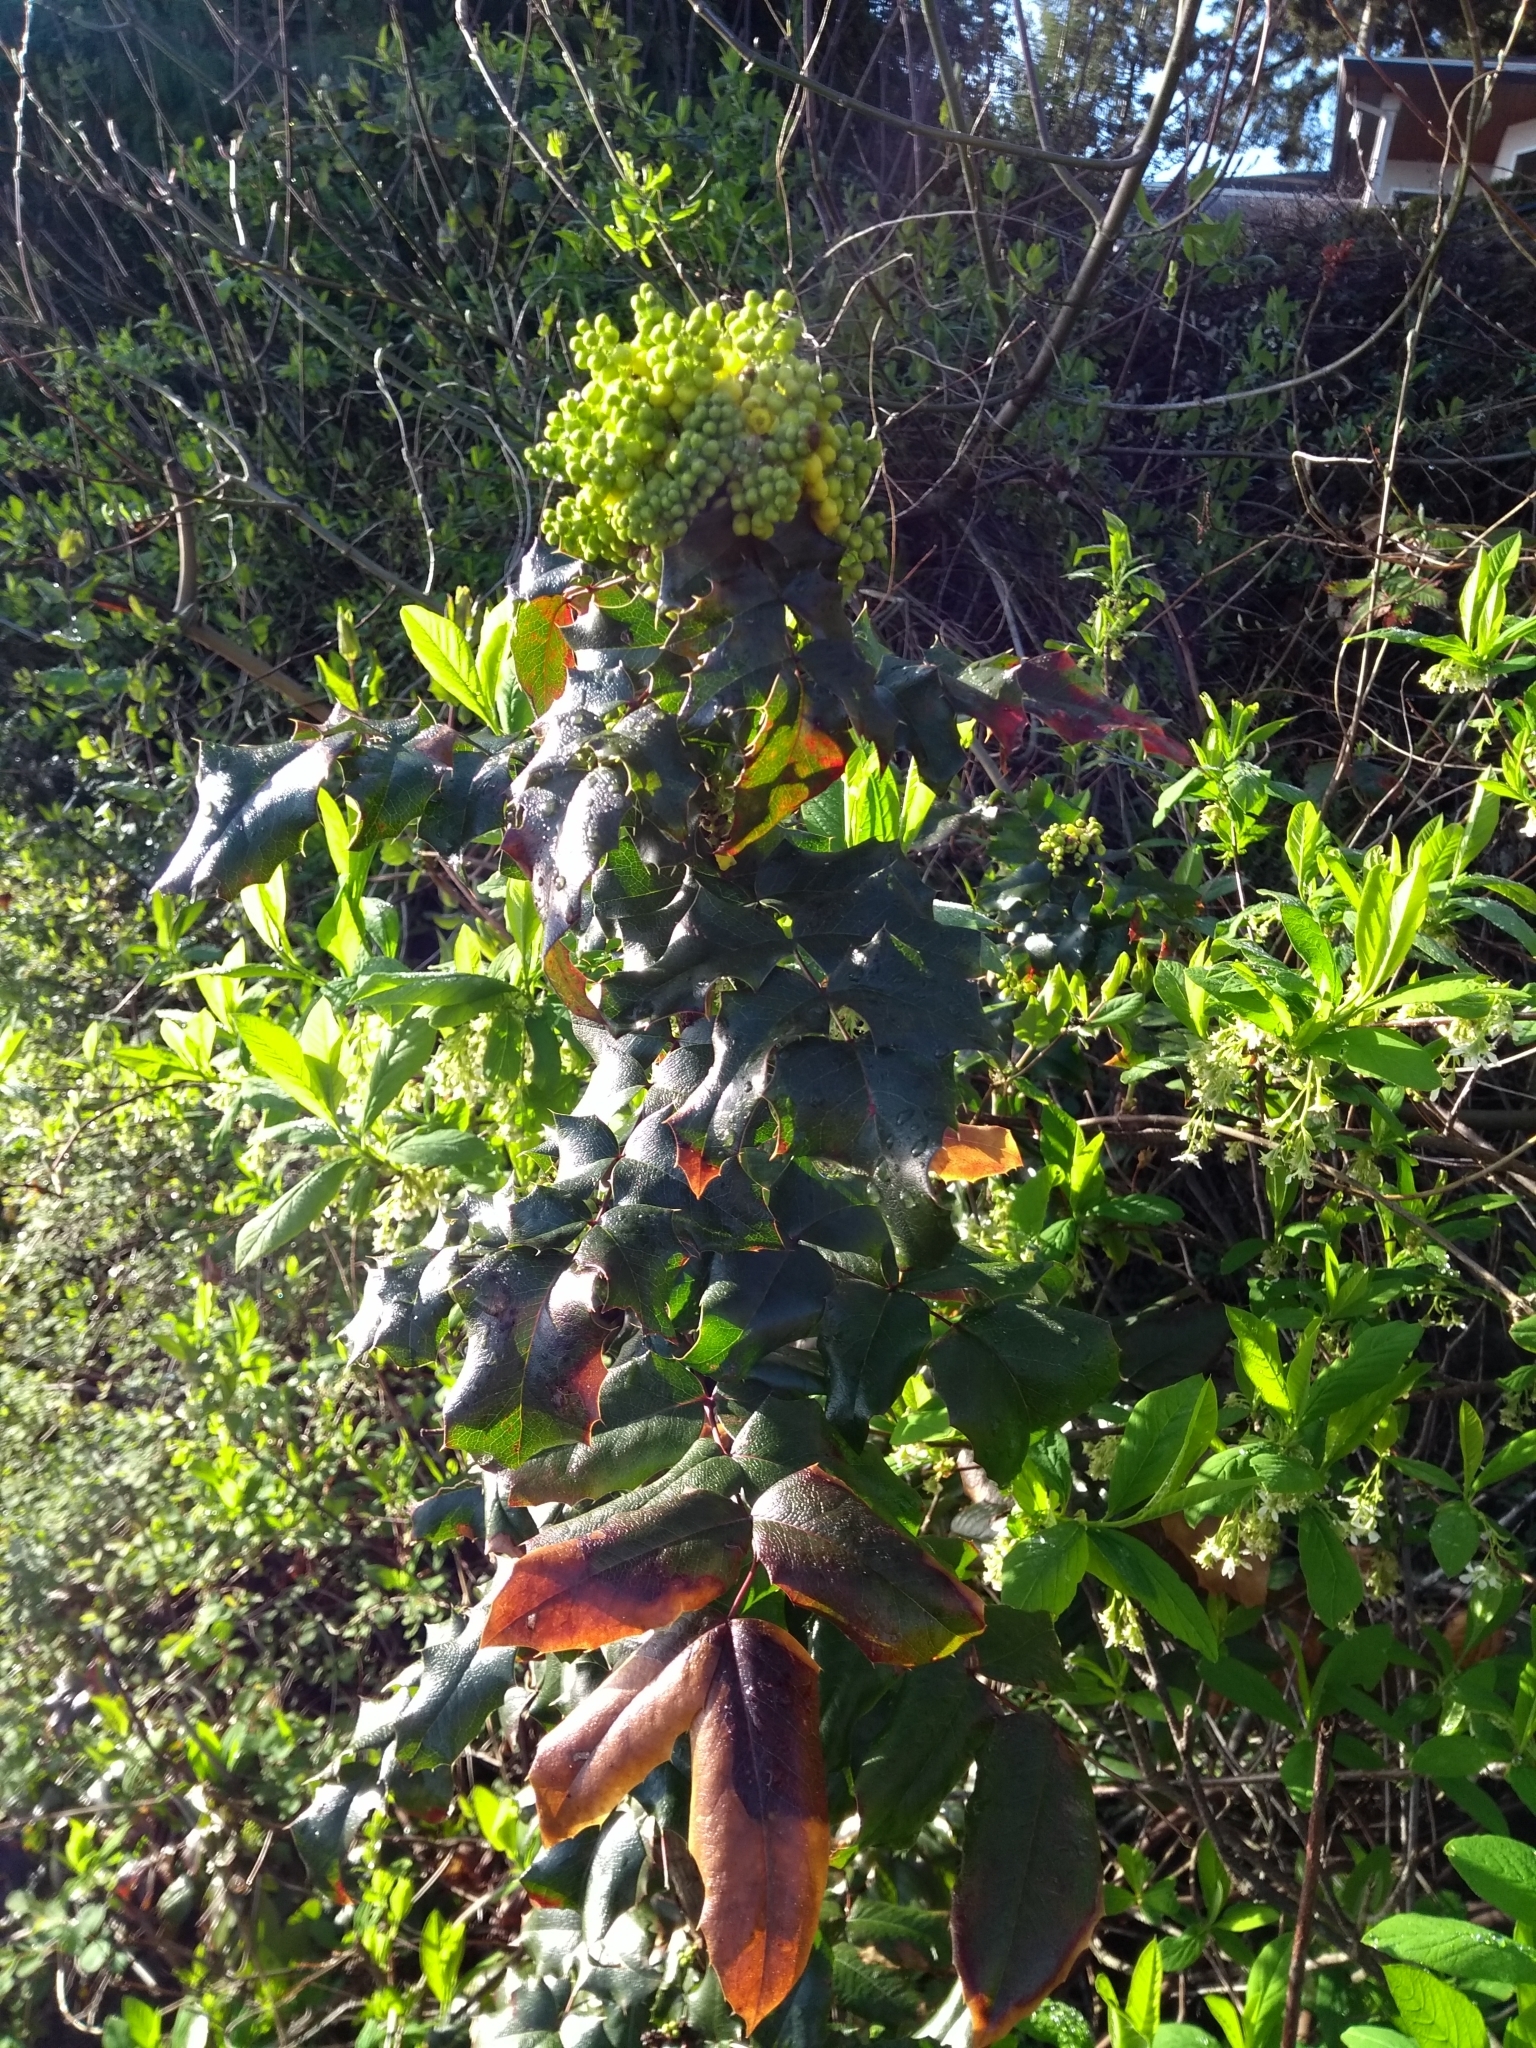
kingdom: Plantae
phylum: Tracheophyta
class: Magnoliopsida
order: Ranunculales
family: Berberidaceae
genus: Mahonia
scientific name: Mahonia aquifolium
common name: Oregon-grape
